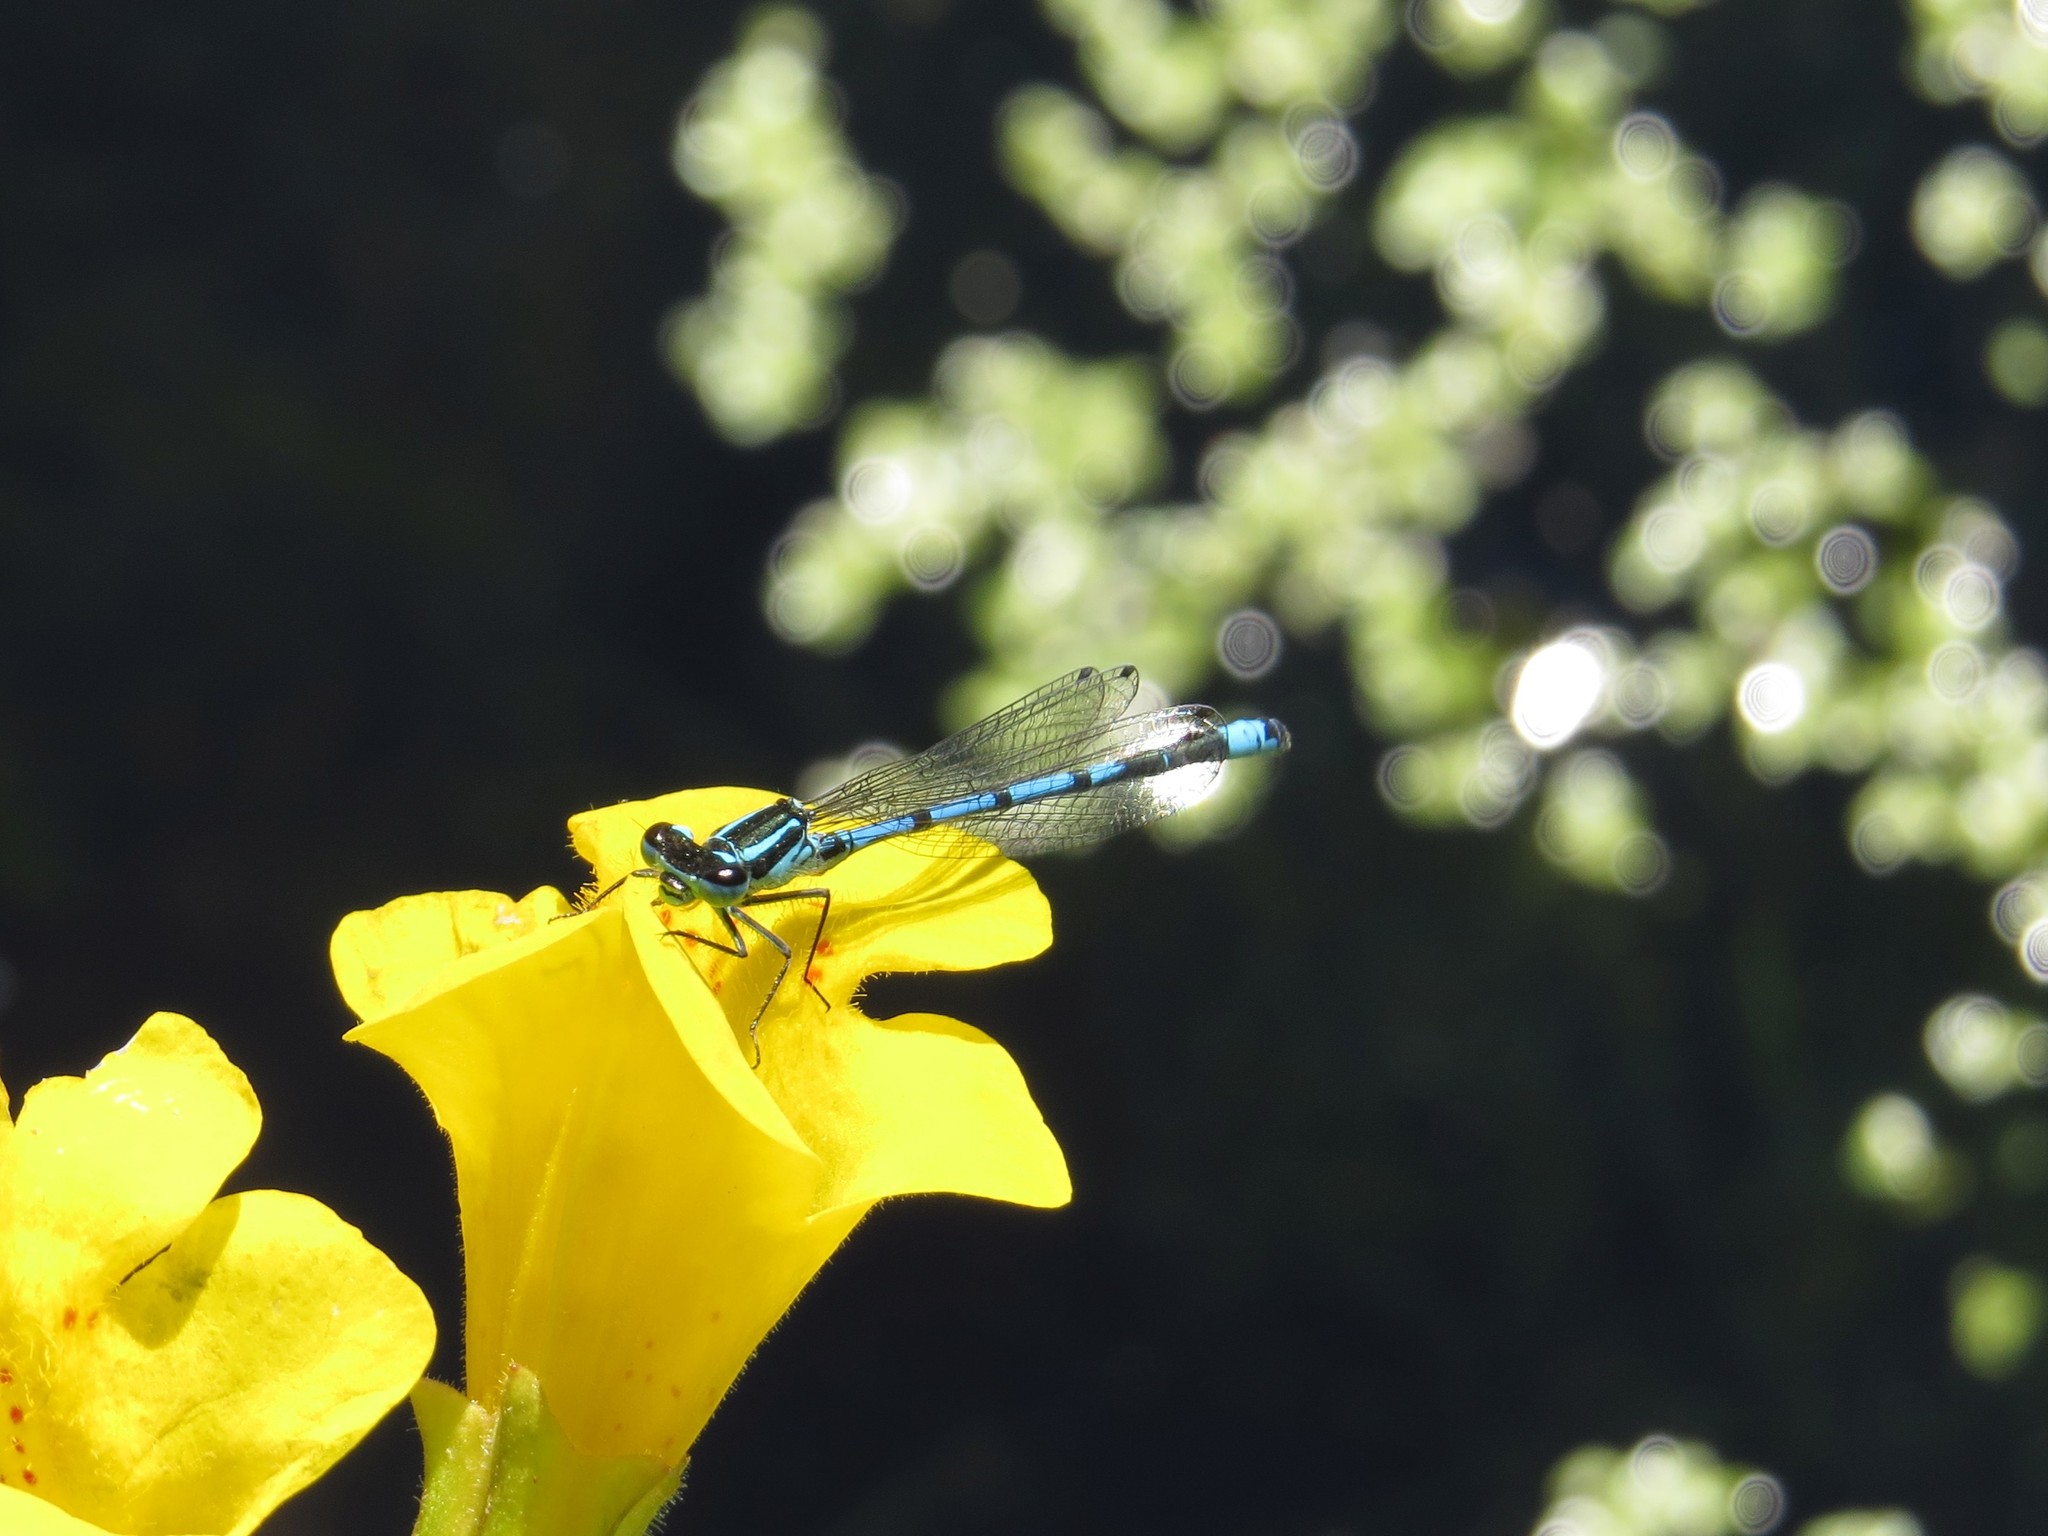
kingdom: Animalia
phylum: Arthropoda
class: Insecta
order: Odonata
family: Coenagrionidae
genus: Coenagrion
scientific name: Coenagrion puella
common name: Azure damselfly
